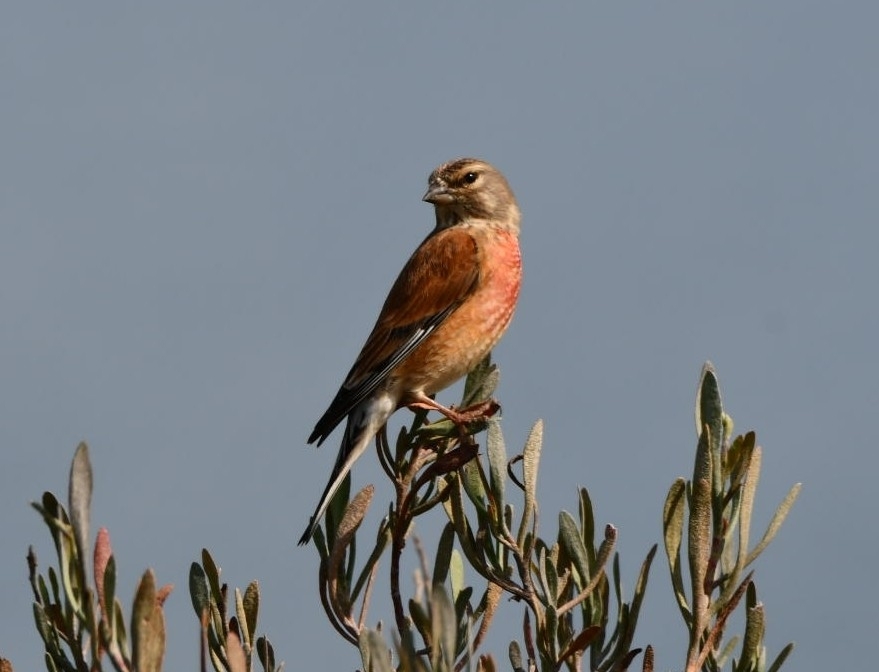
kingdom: Animalia
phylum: Chordata
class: Aves
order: Passeriformes
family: Fringillidae
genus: Linaria
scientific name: Linaria cannabina
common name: Common linnet
